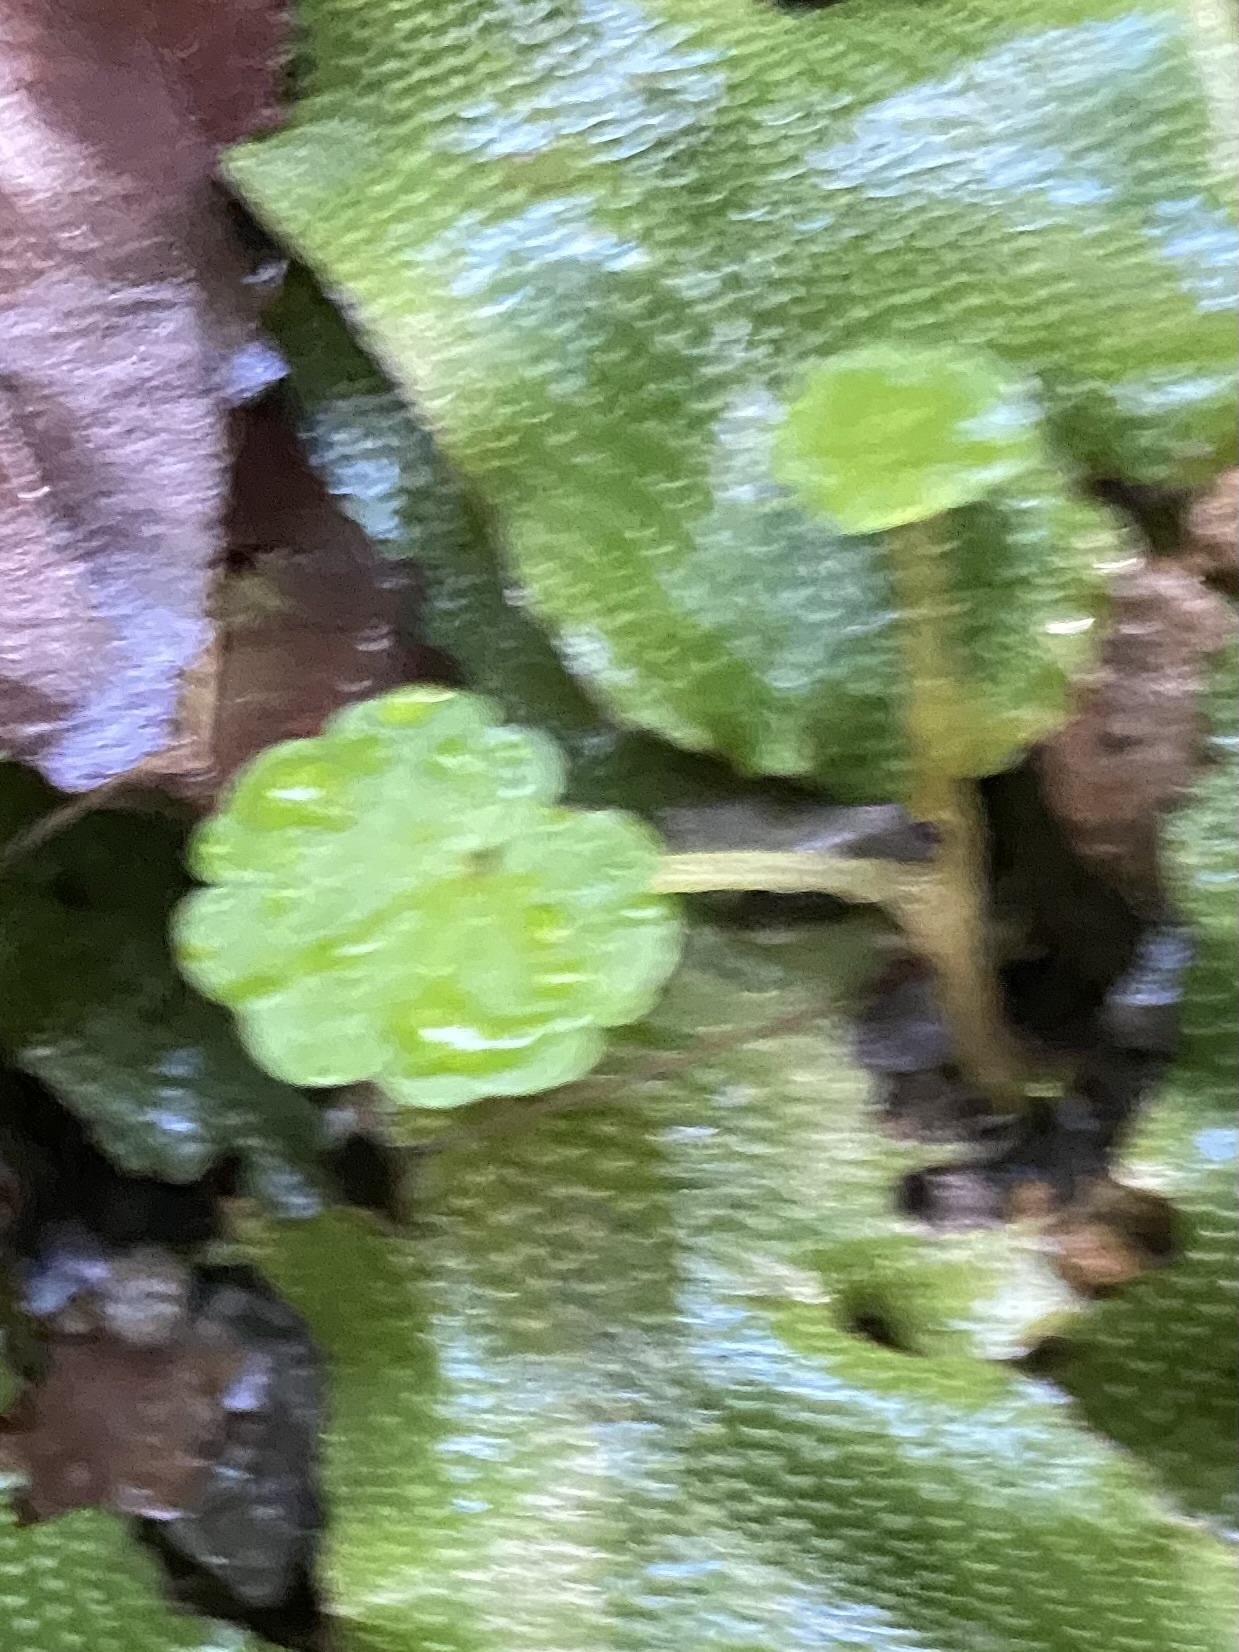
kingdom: Plantae
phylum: Tracheophyta
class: Magnoliopsida
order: Saxifragales
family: Saxifragaceae
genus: Chrysosplenium
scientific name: Chrysosplenium alternifolium
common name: Alternate-leaved golden-saxifrage
